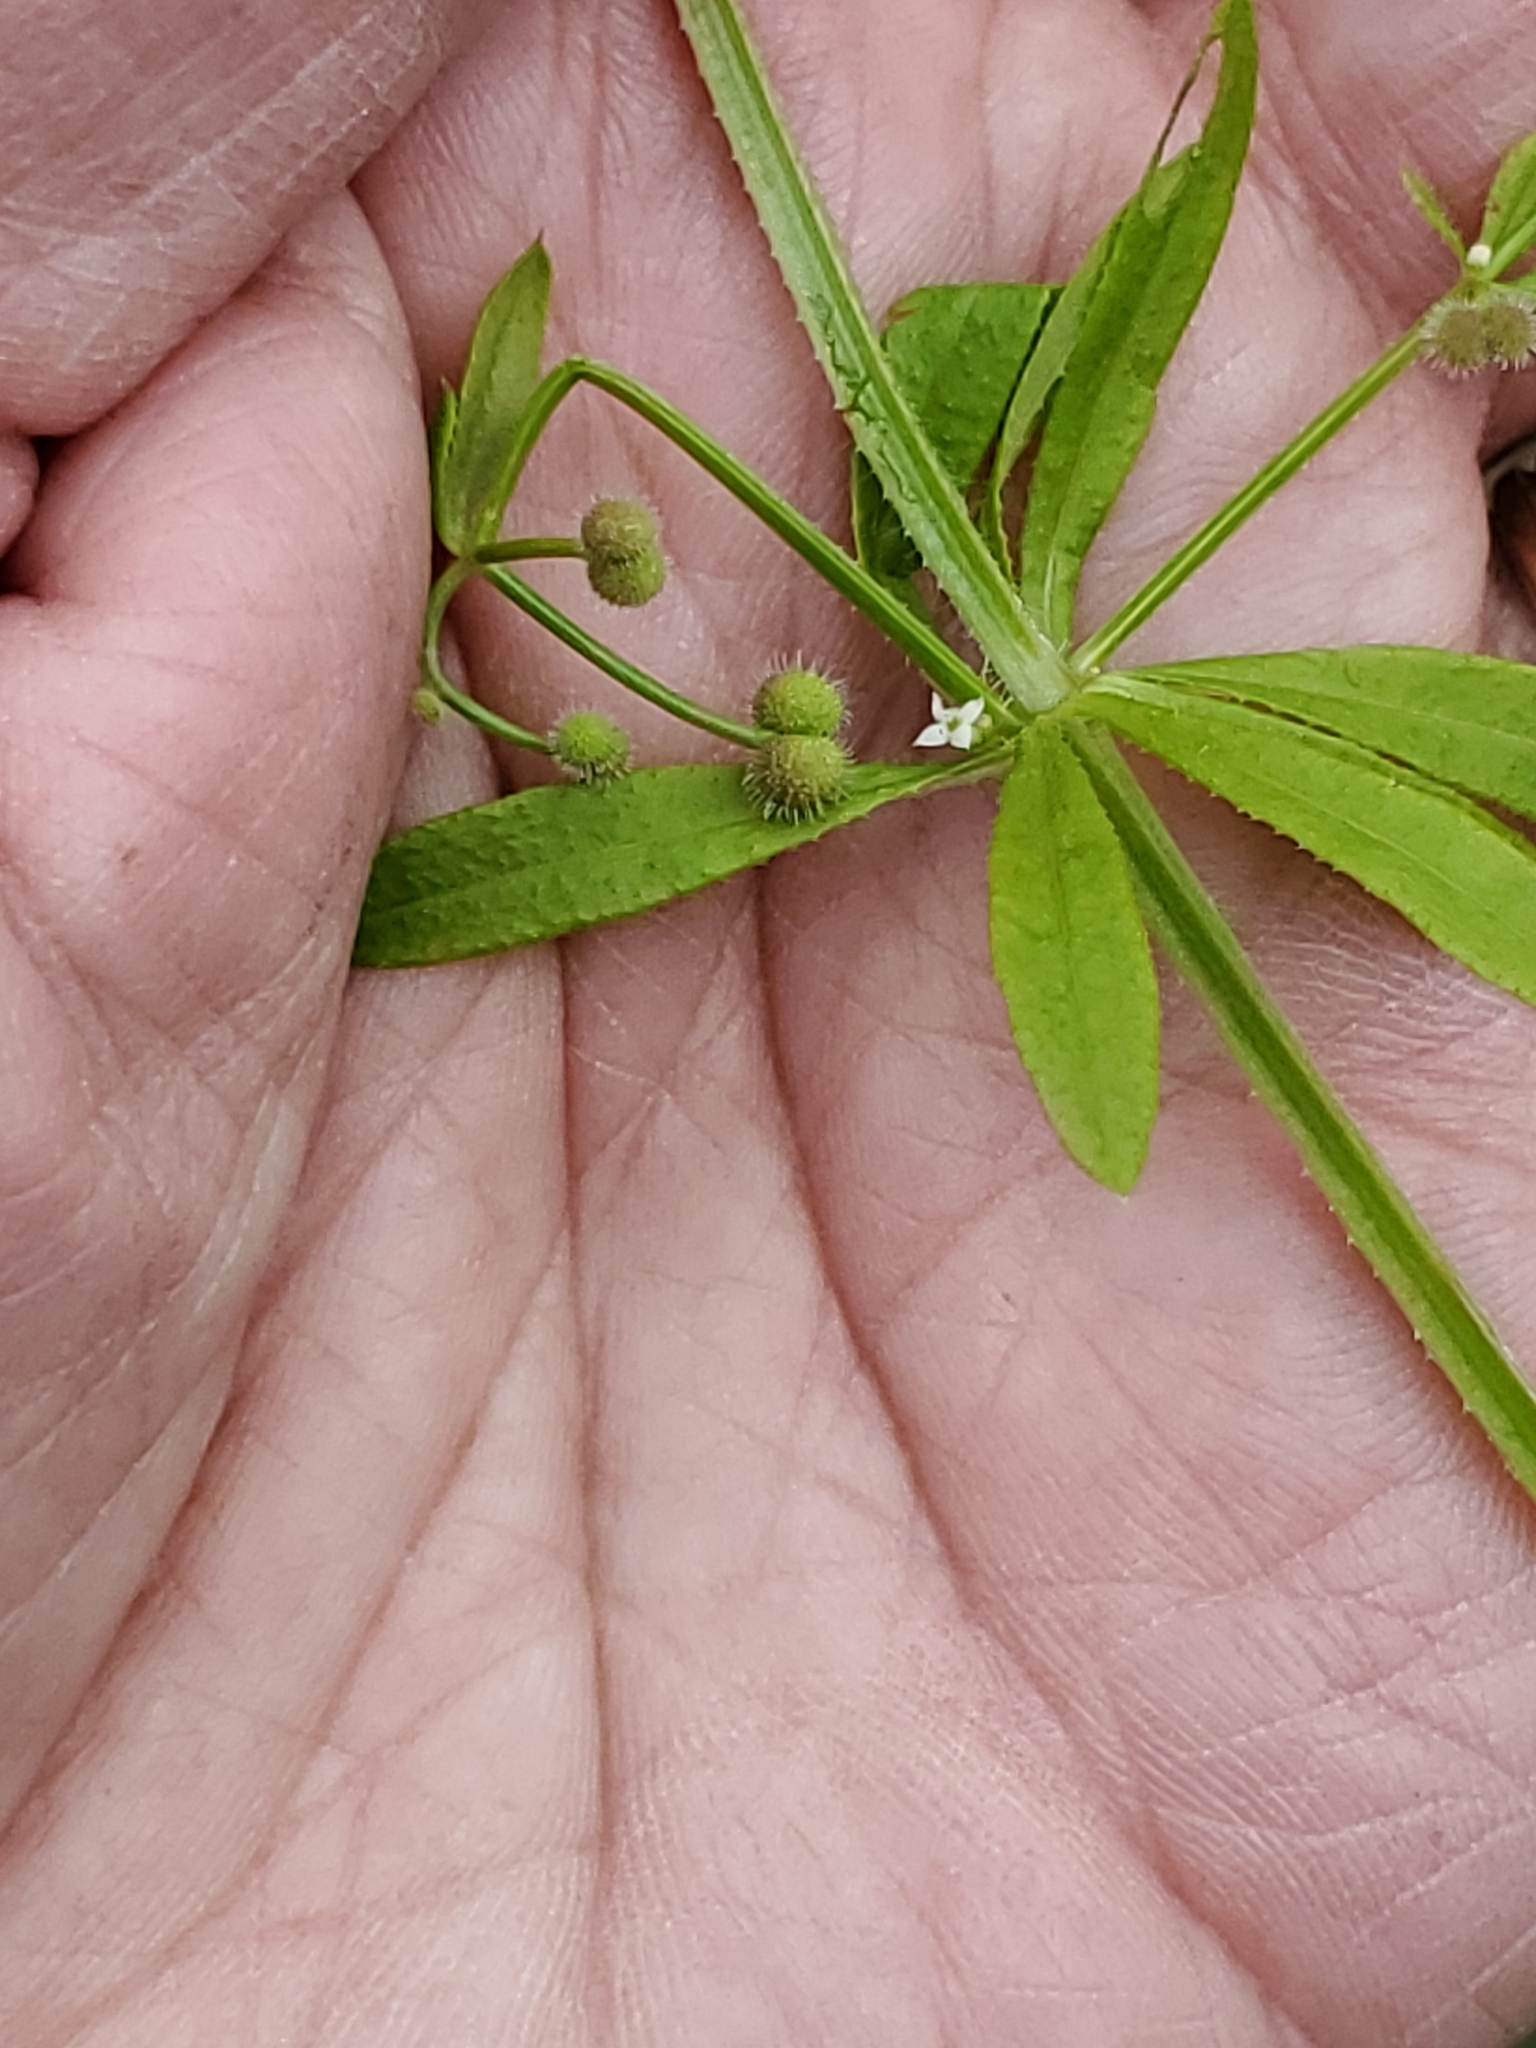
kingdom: Plantae
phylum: Tracheophyta
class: Magnoliopsida
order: Gentianales
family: Rubiaceae
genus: Galium
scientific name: Galium aparine
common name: Cleavers
